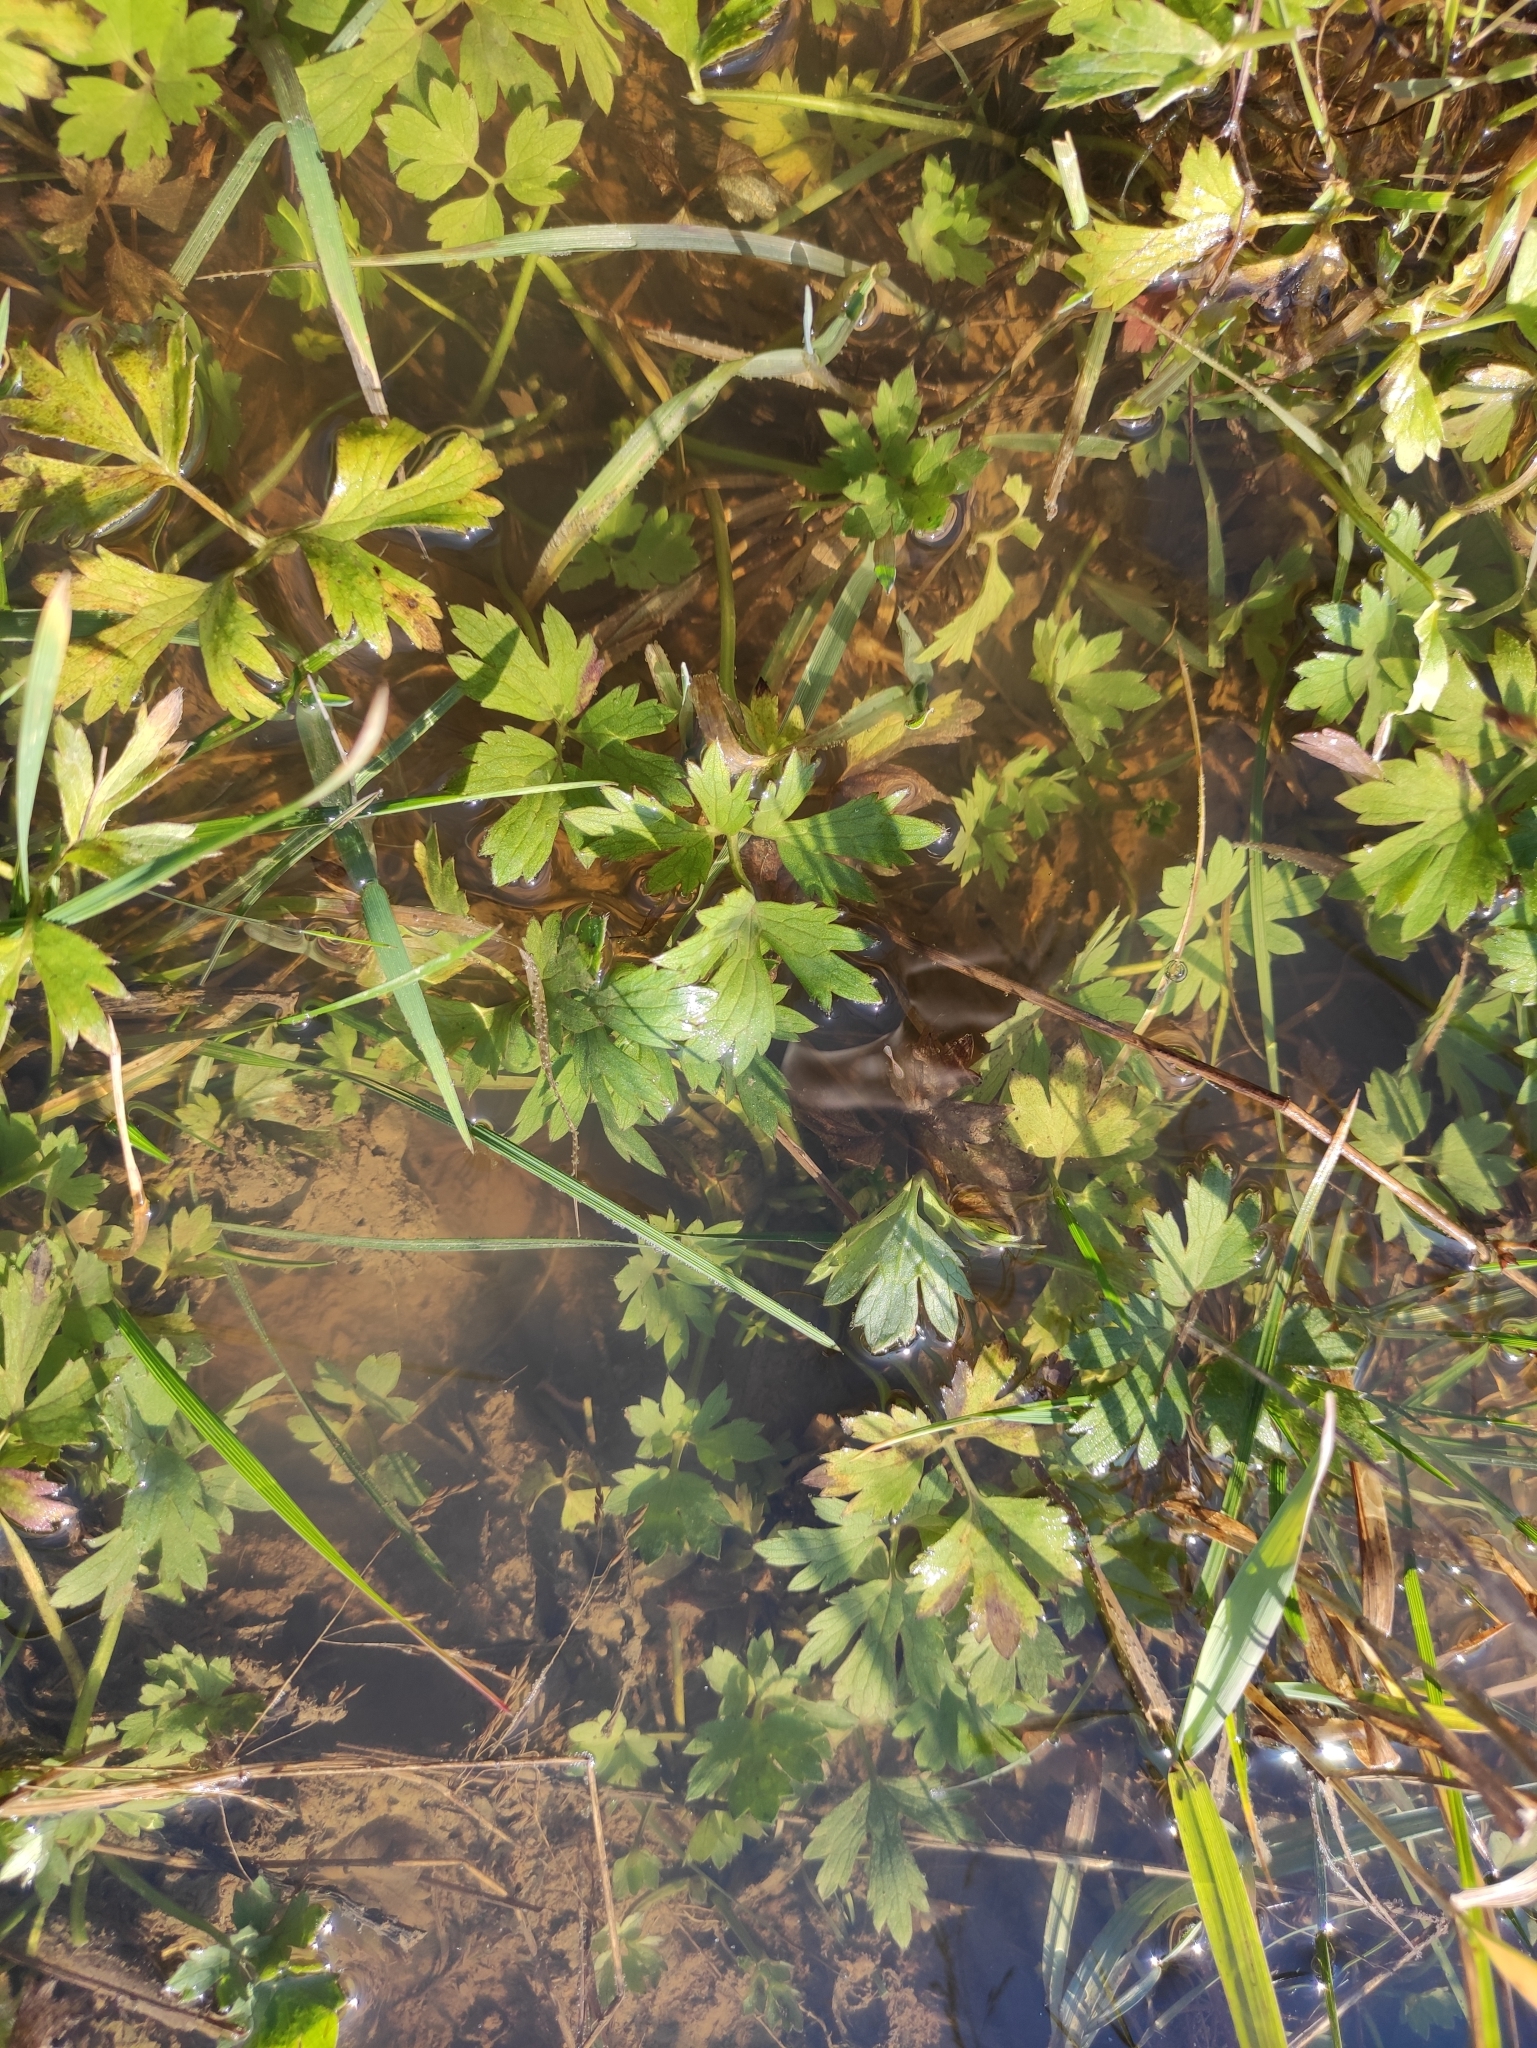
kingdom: Plantae
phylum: Tracheophyta
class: Magnoliopsida
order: Ranunculales
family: Ranunculaceae
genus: Ranunculus
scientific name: Ranunculus repens
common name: Creeping buttercup
